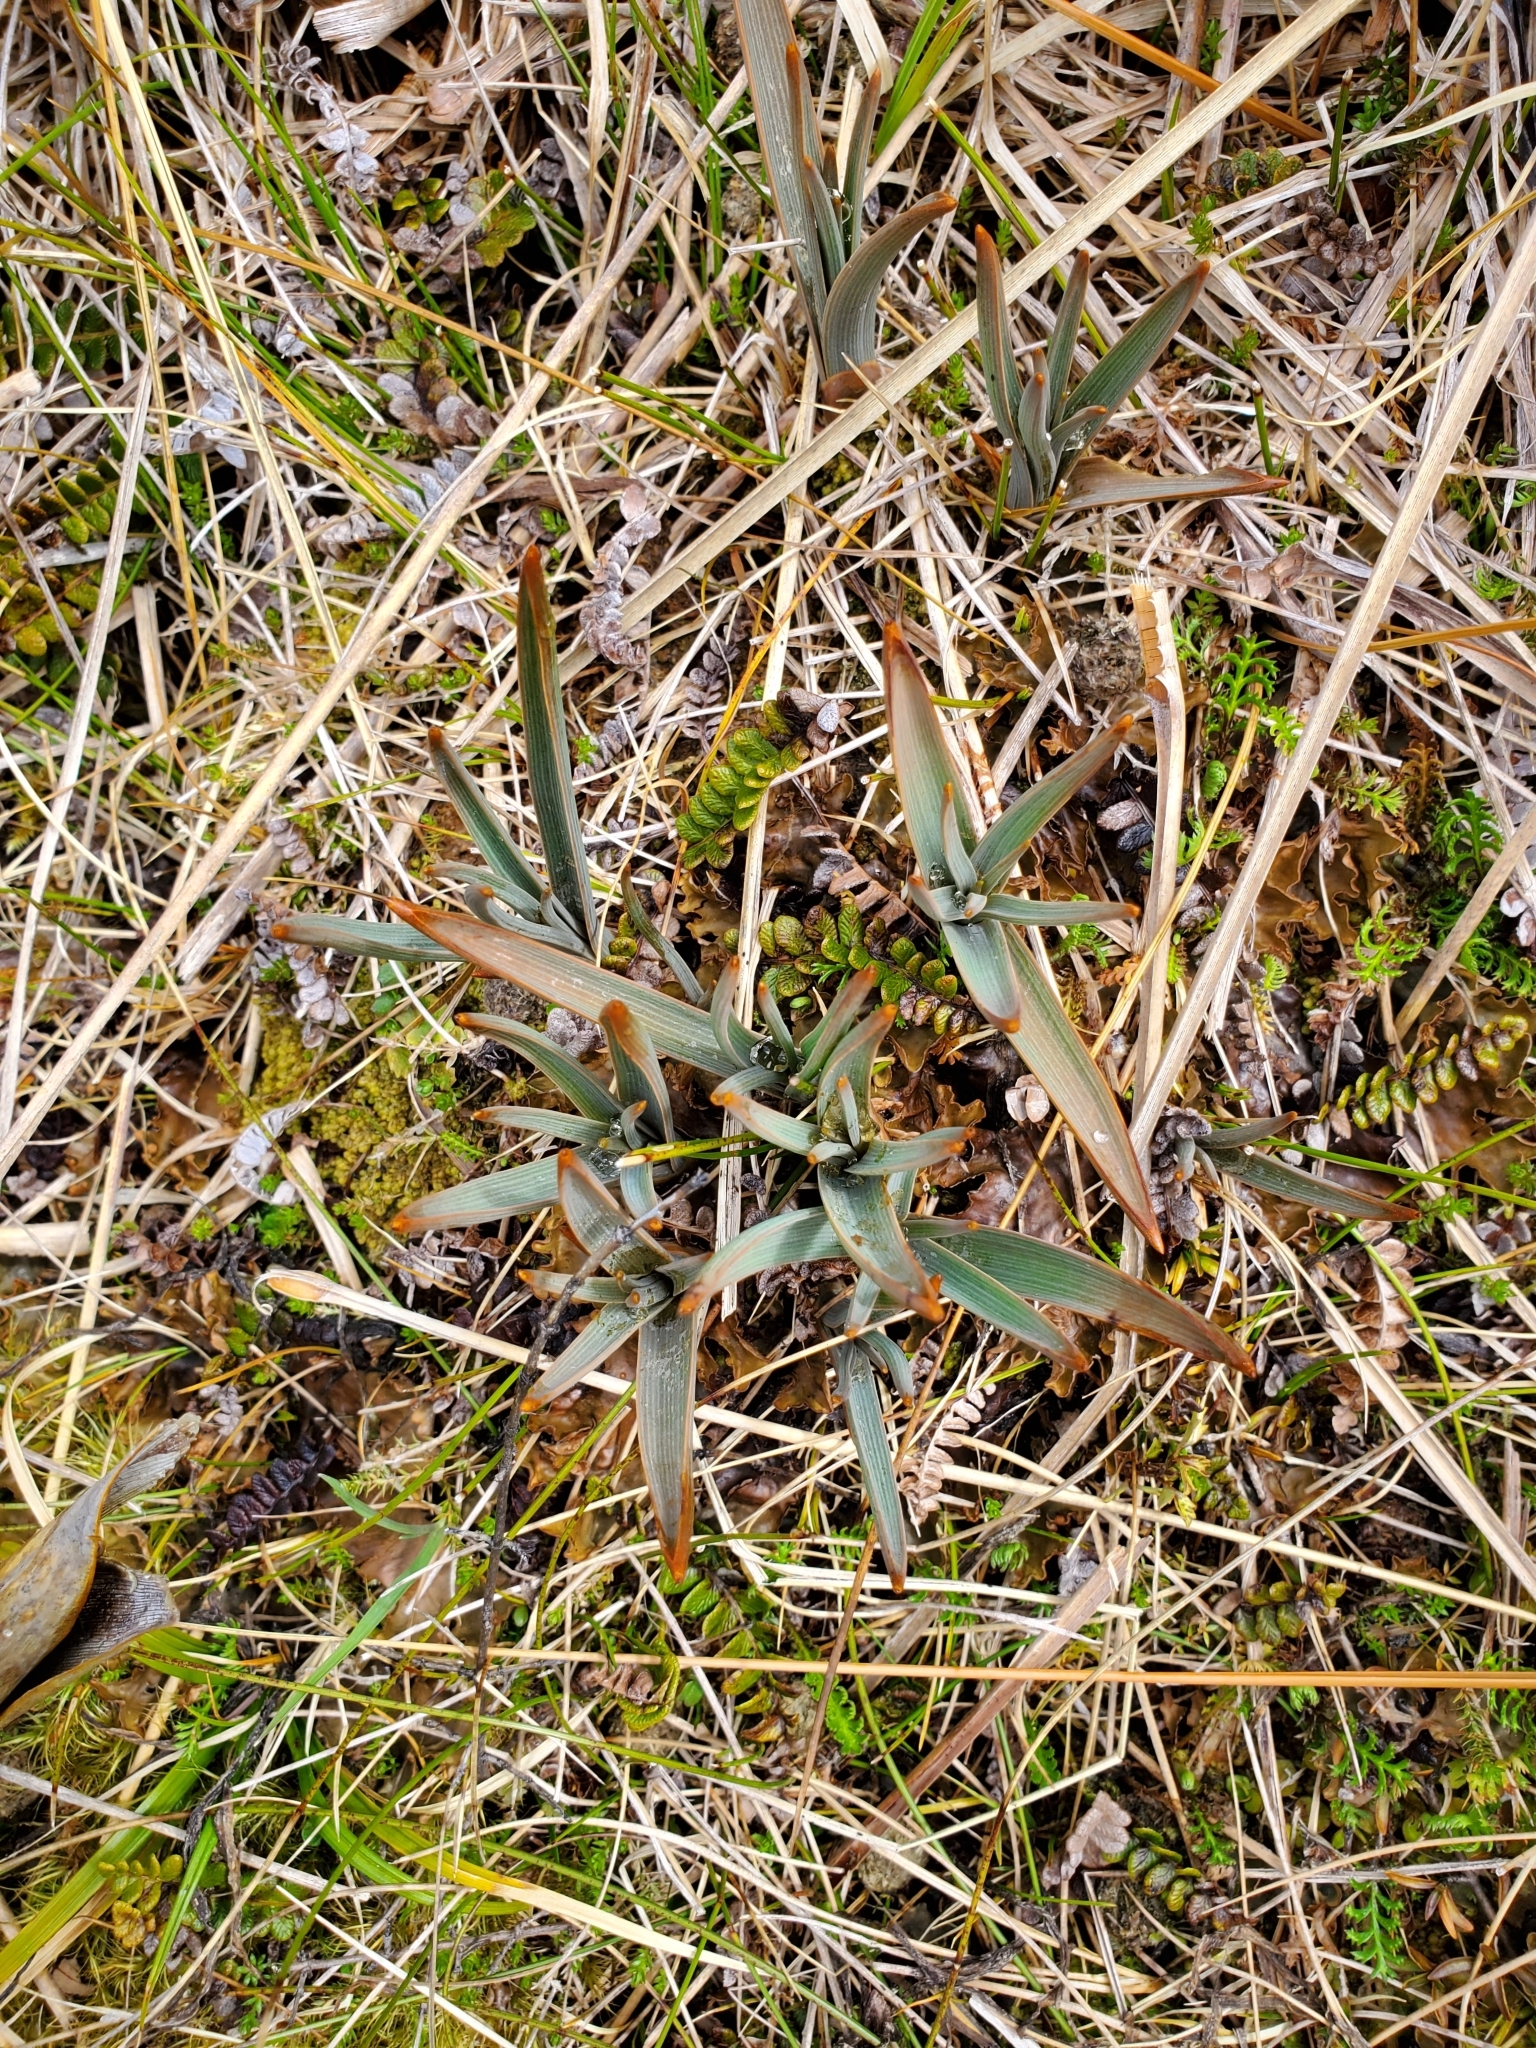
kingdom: Plantae
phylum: Tracheophyta
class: Liliopsida
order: Asparagales
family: Asphodelaceae
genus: Bulbinella
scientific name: Bulbinella hookeri
